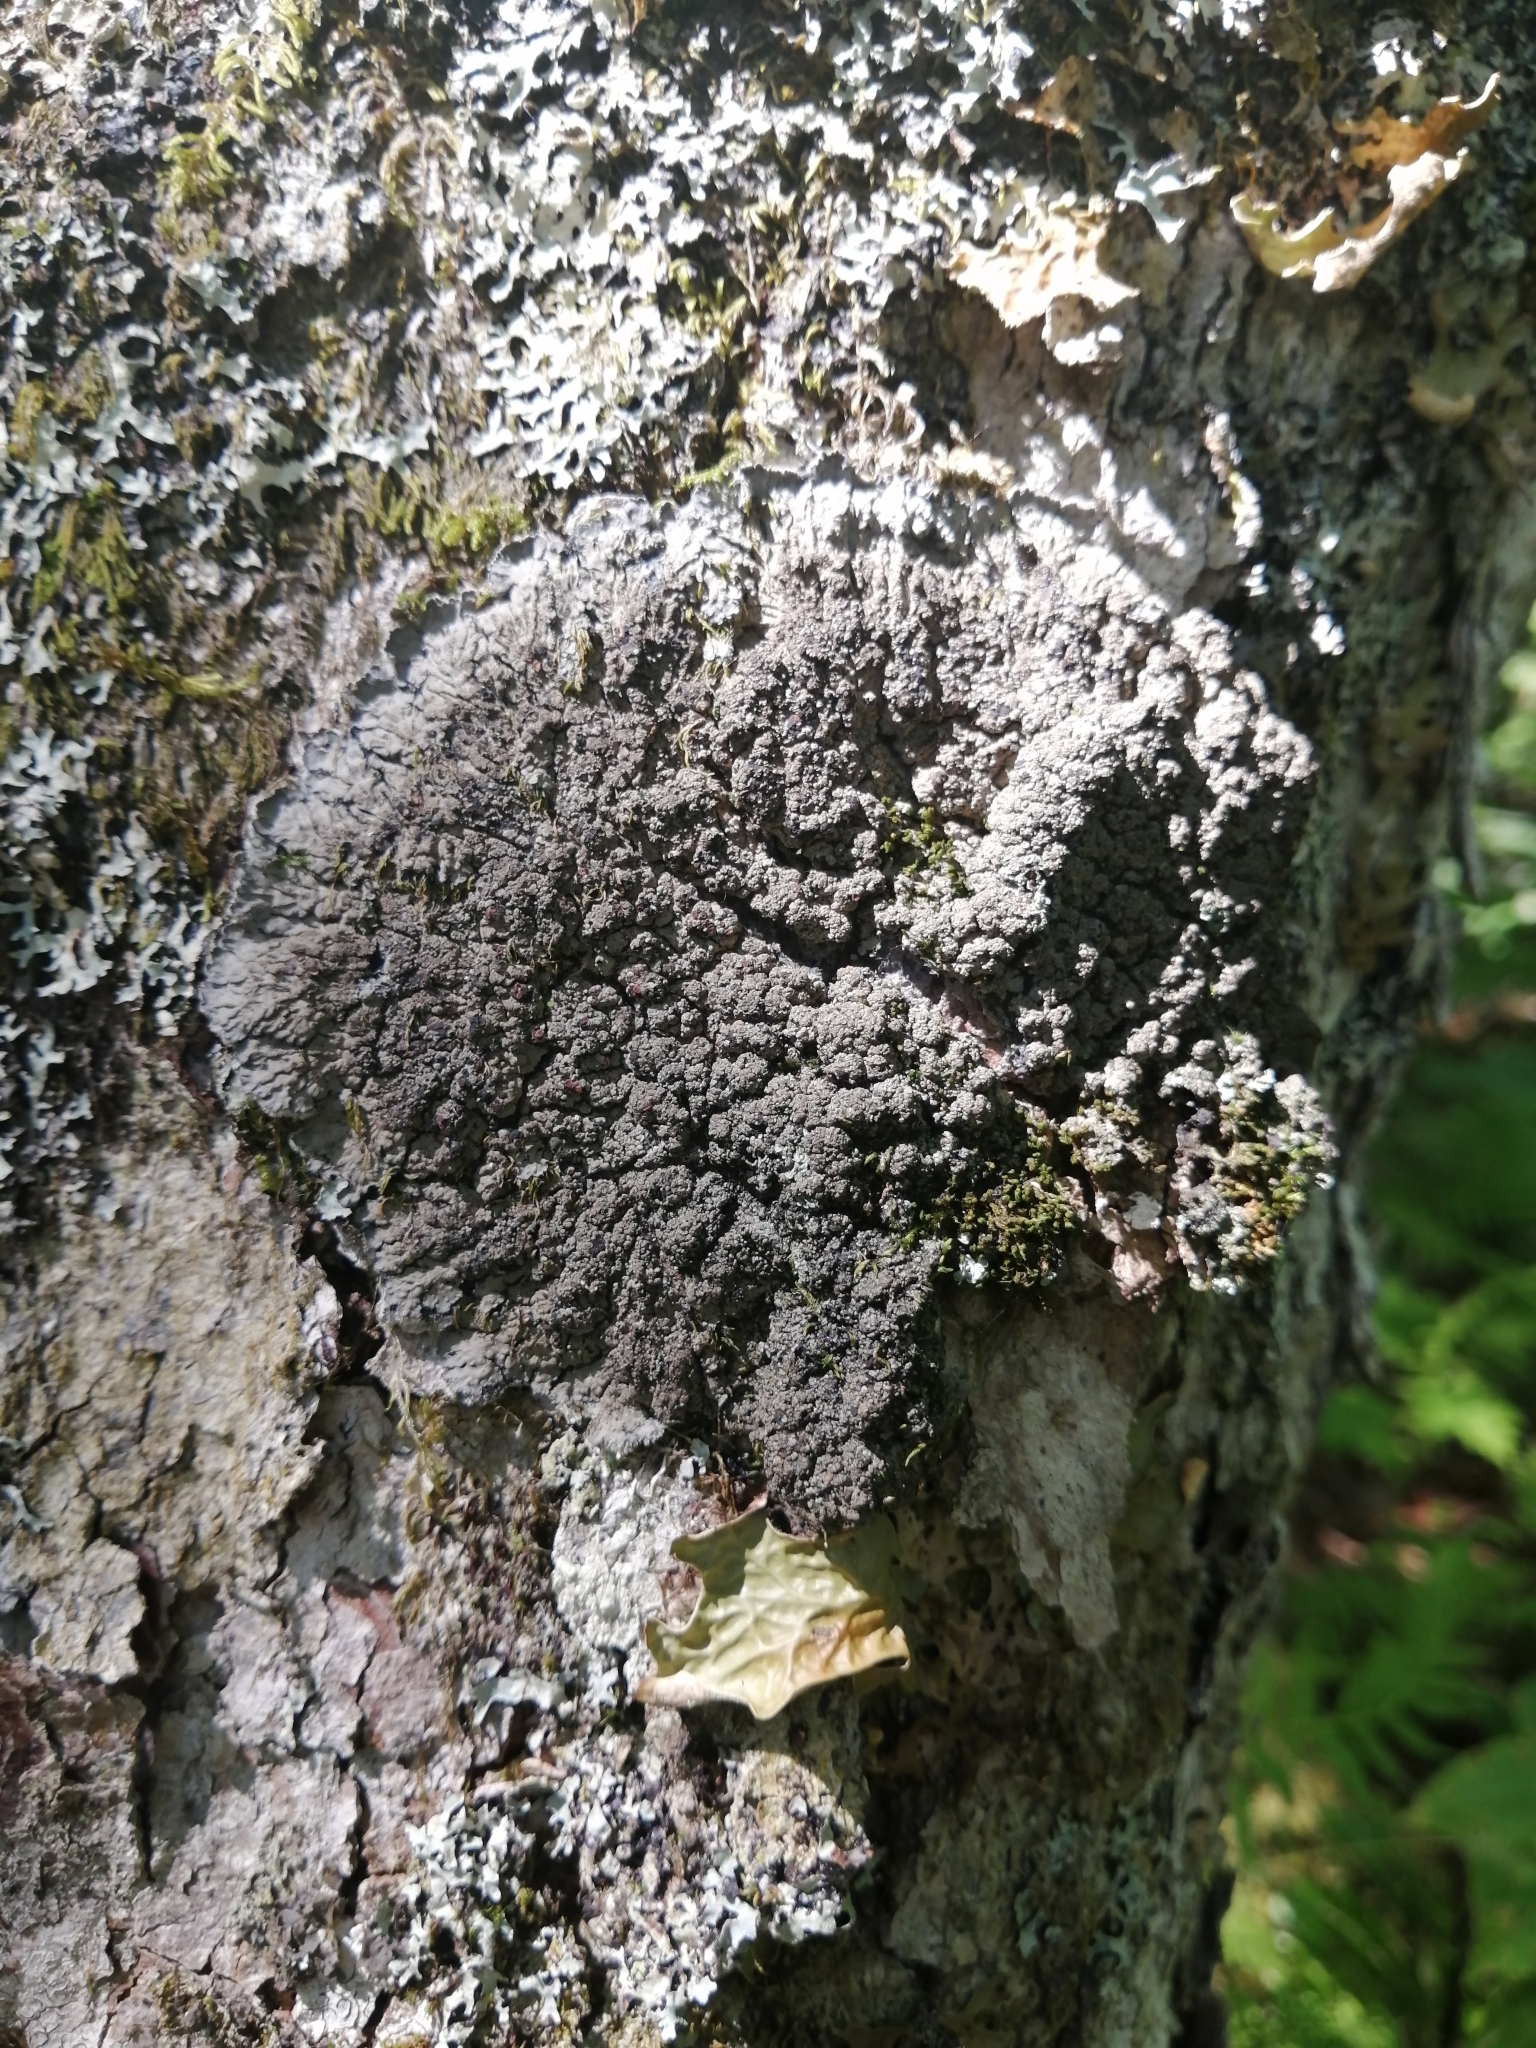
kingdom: Fungi
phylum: Ascomycota
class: Lecanoromycetes
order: Peltigerales
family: Pannariaceae
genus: Pectenia
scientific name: Pectenia plumbea
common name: Bladder stalks
